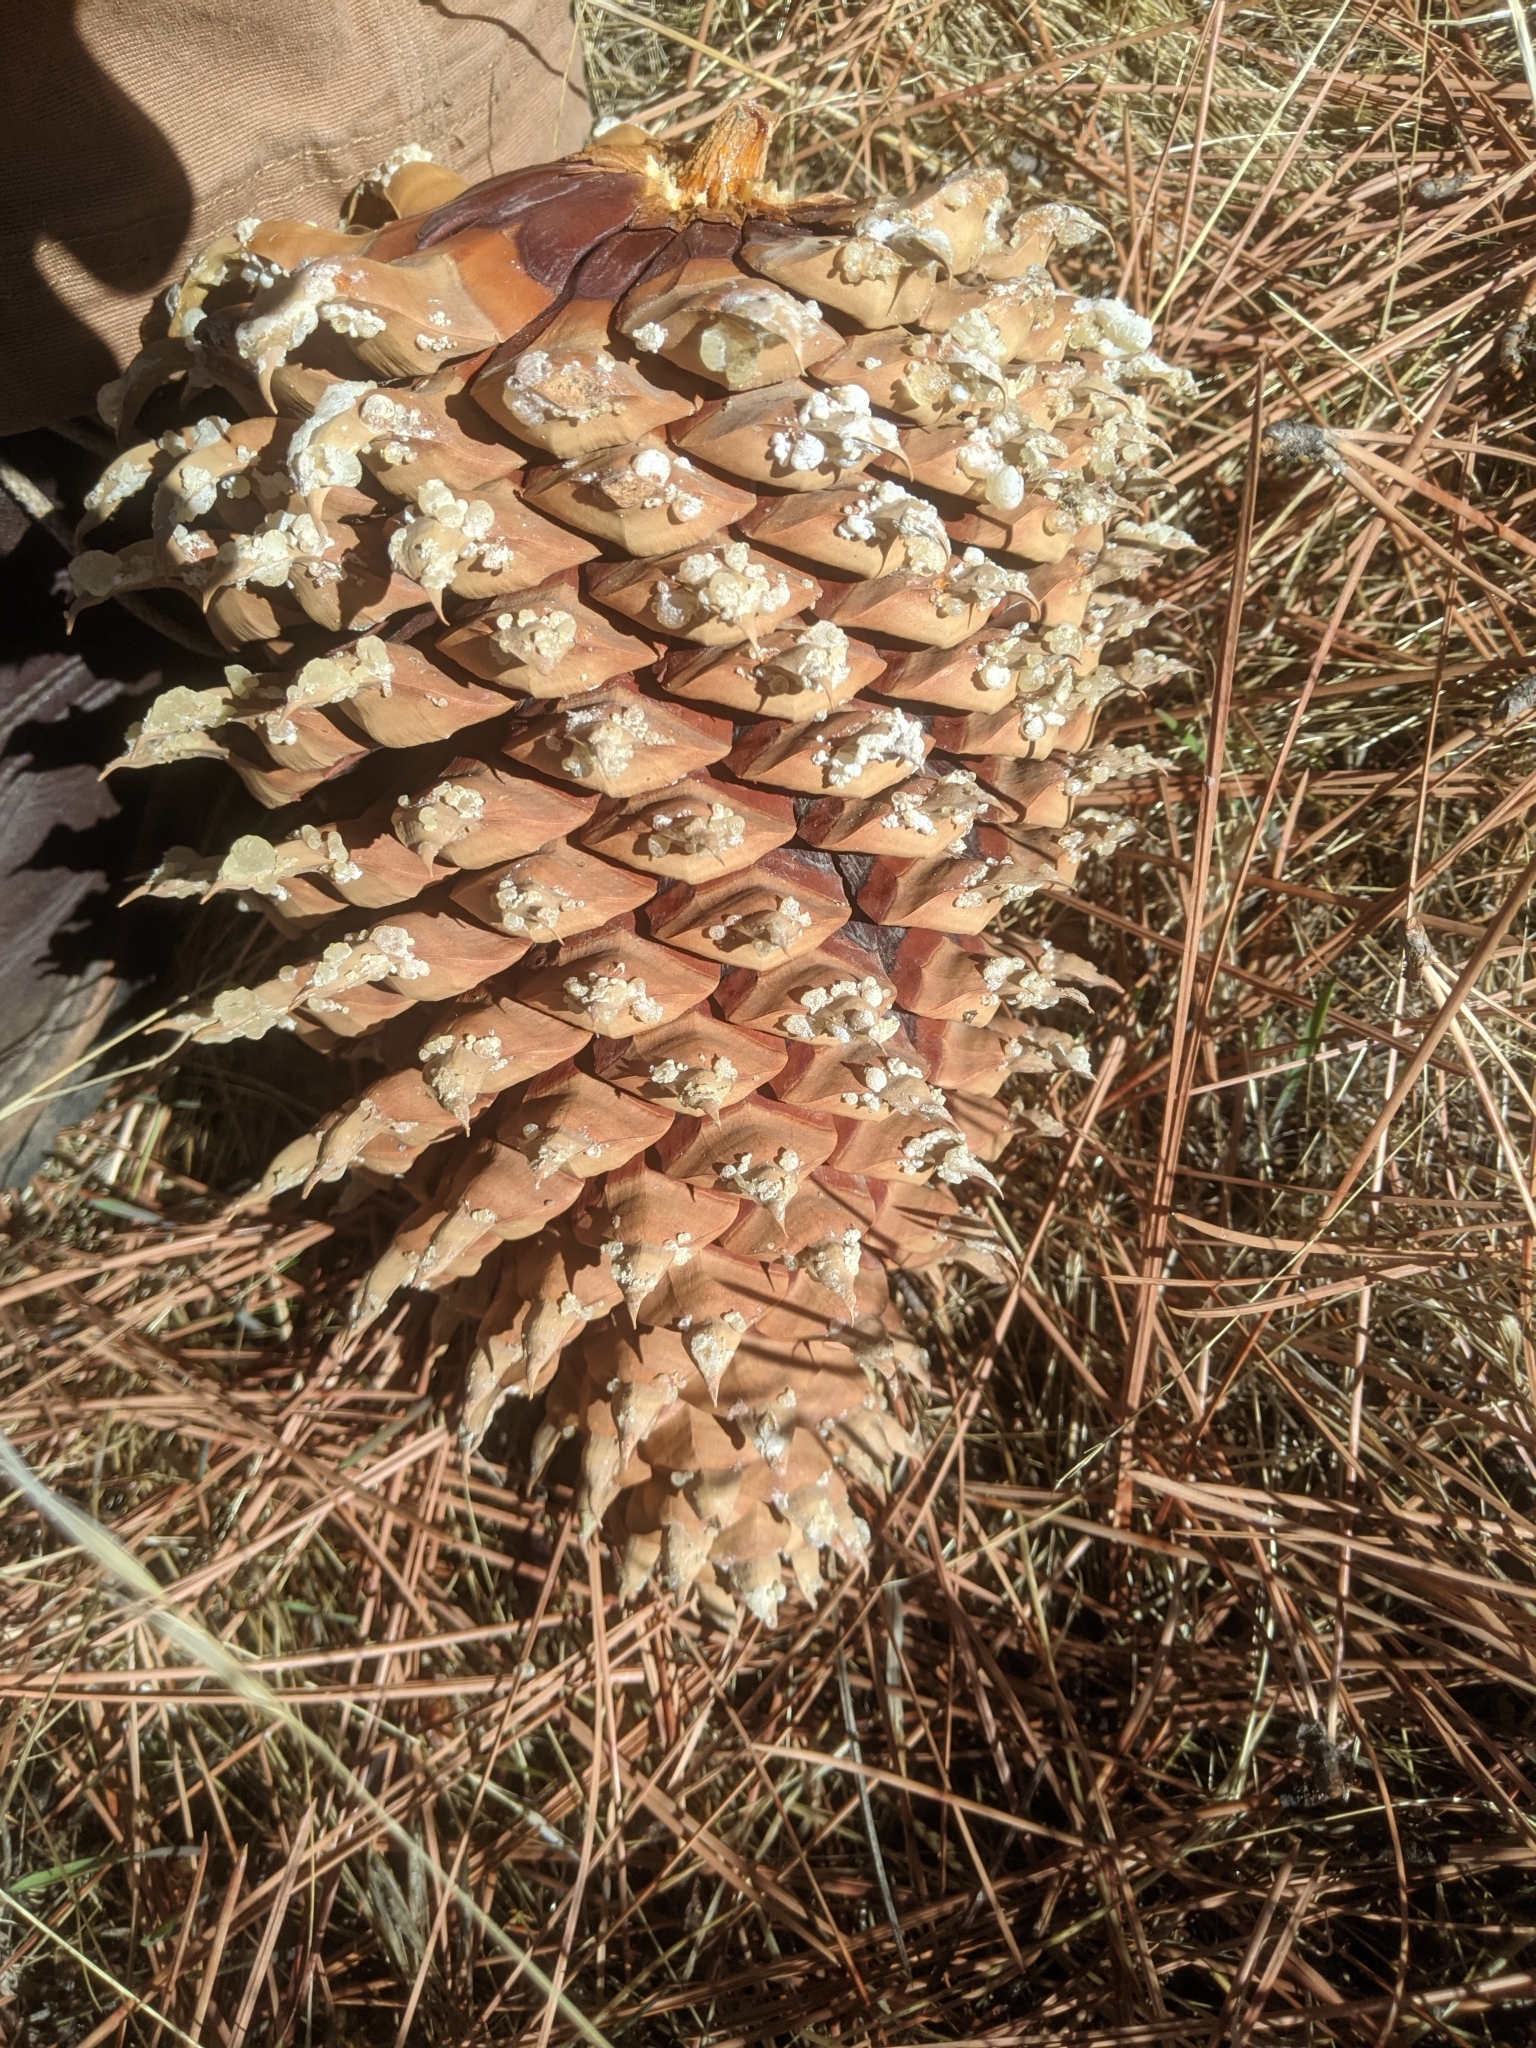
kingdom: Plantae
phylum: Tracheophyta
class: Pinopsida
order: Pinales
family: Pinaceae
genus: Pinus
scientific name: Pinus coulteri
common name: Coulter pine
